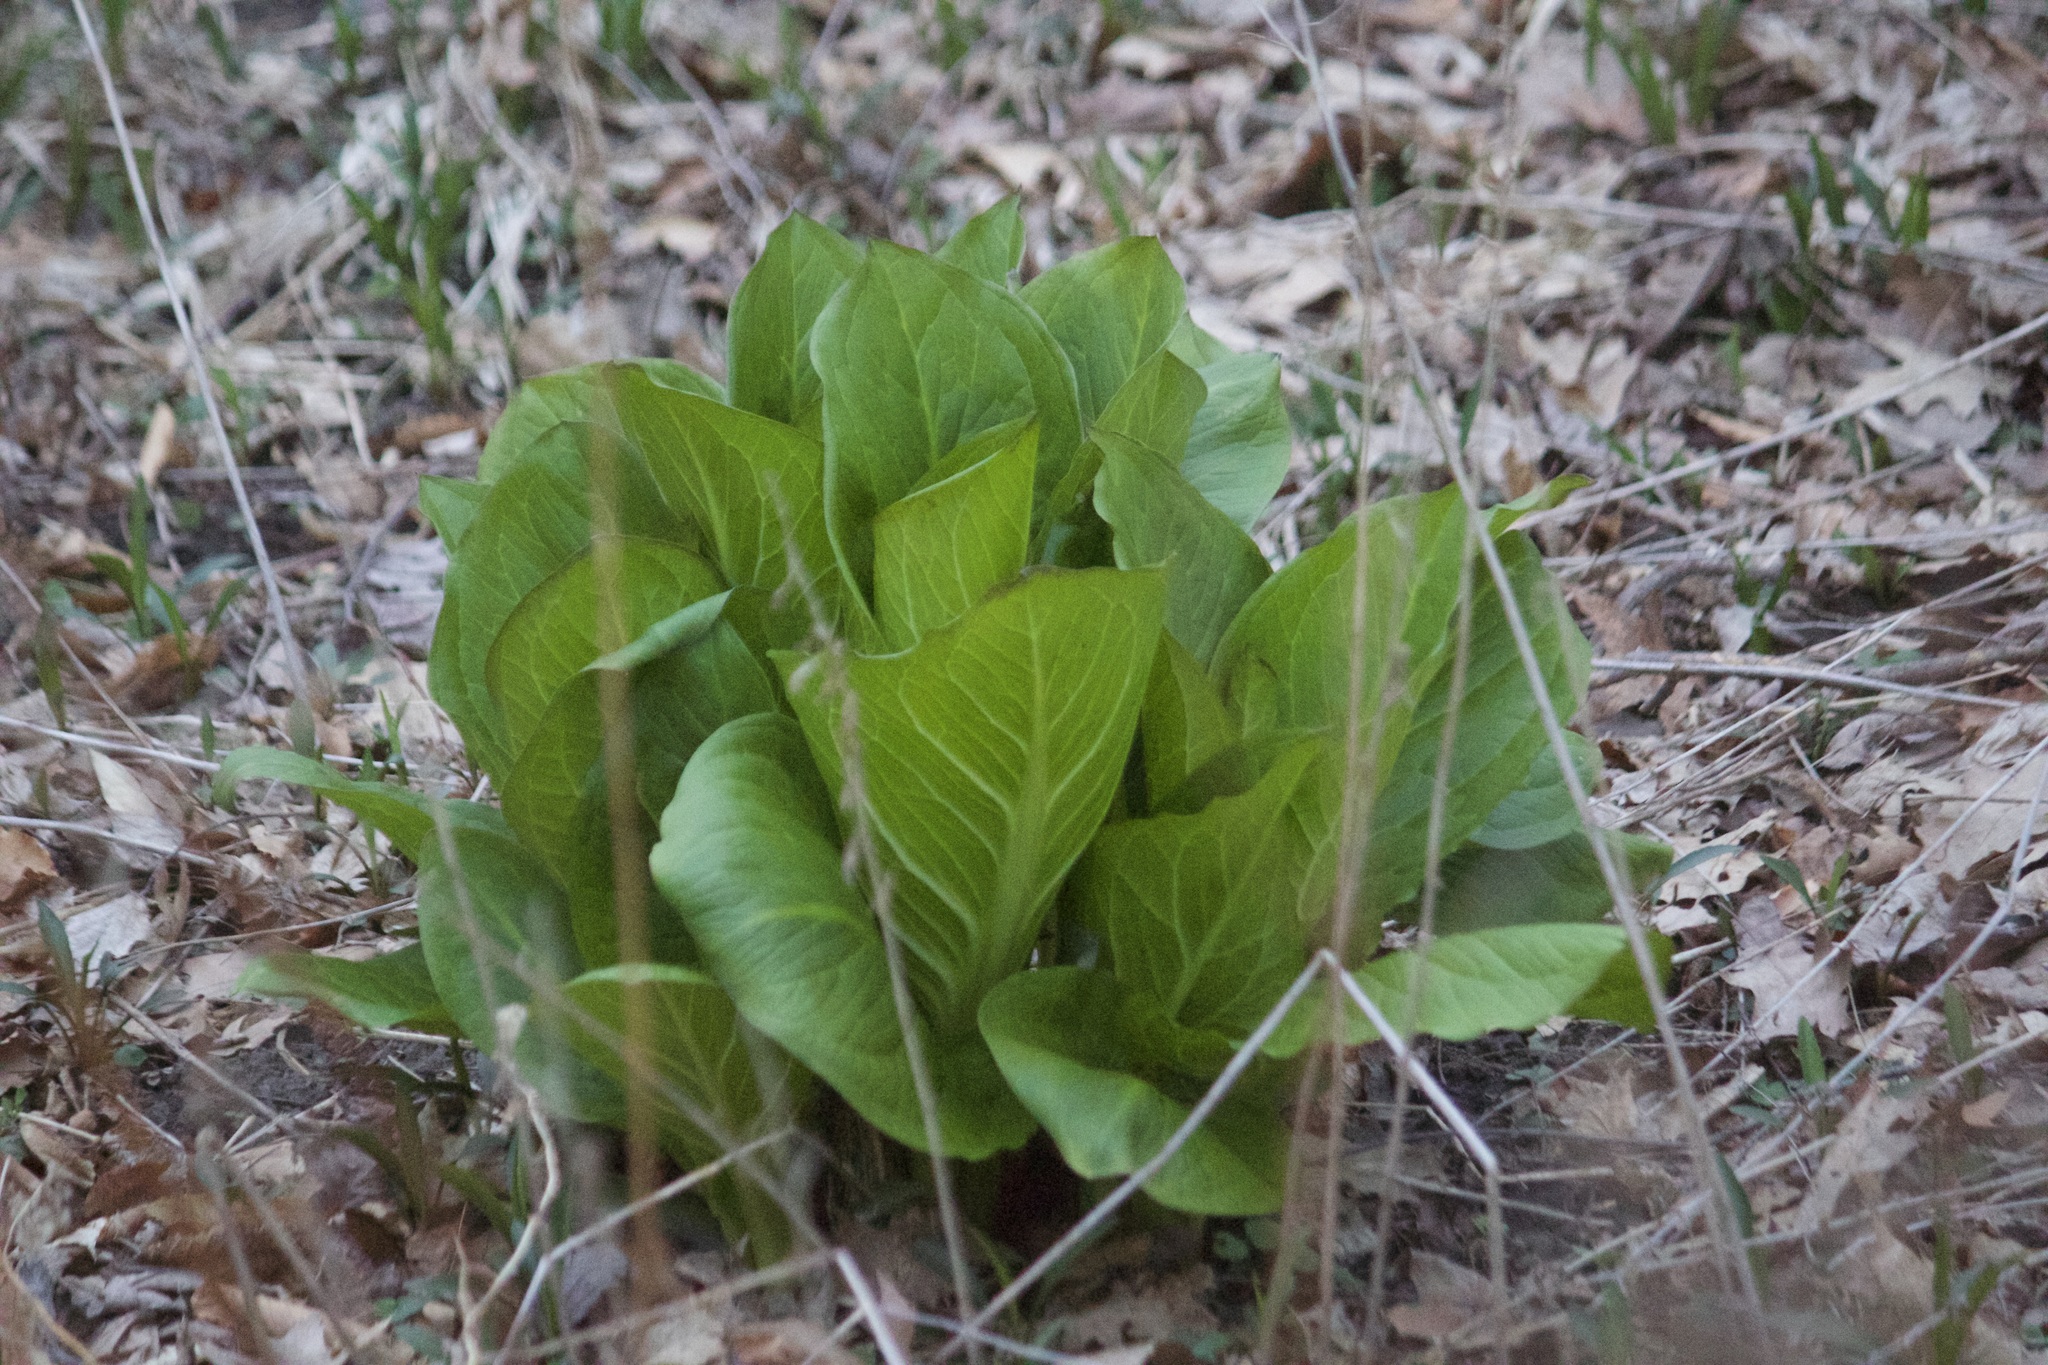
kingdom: Plantae
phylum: Tracheophyta
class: Liliopsida
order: Alismatales
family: Araceae
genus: Symplocarpus
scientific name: Symplocarpus foetidus
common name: Eastern skunk cabbage
